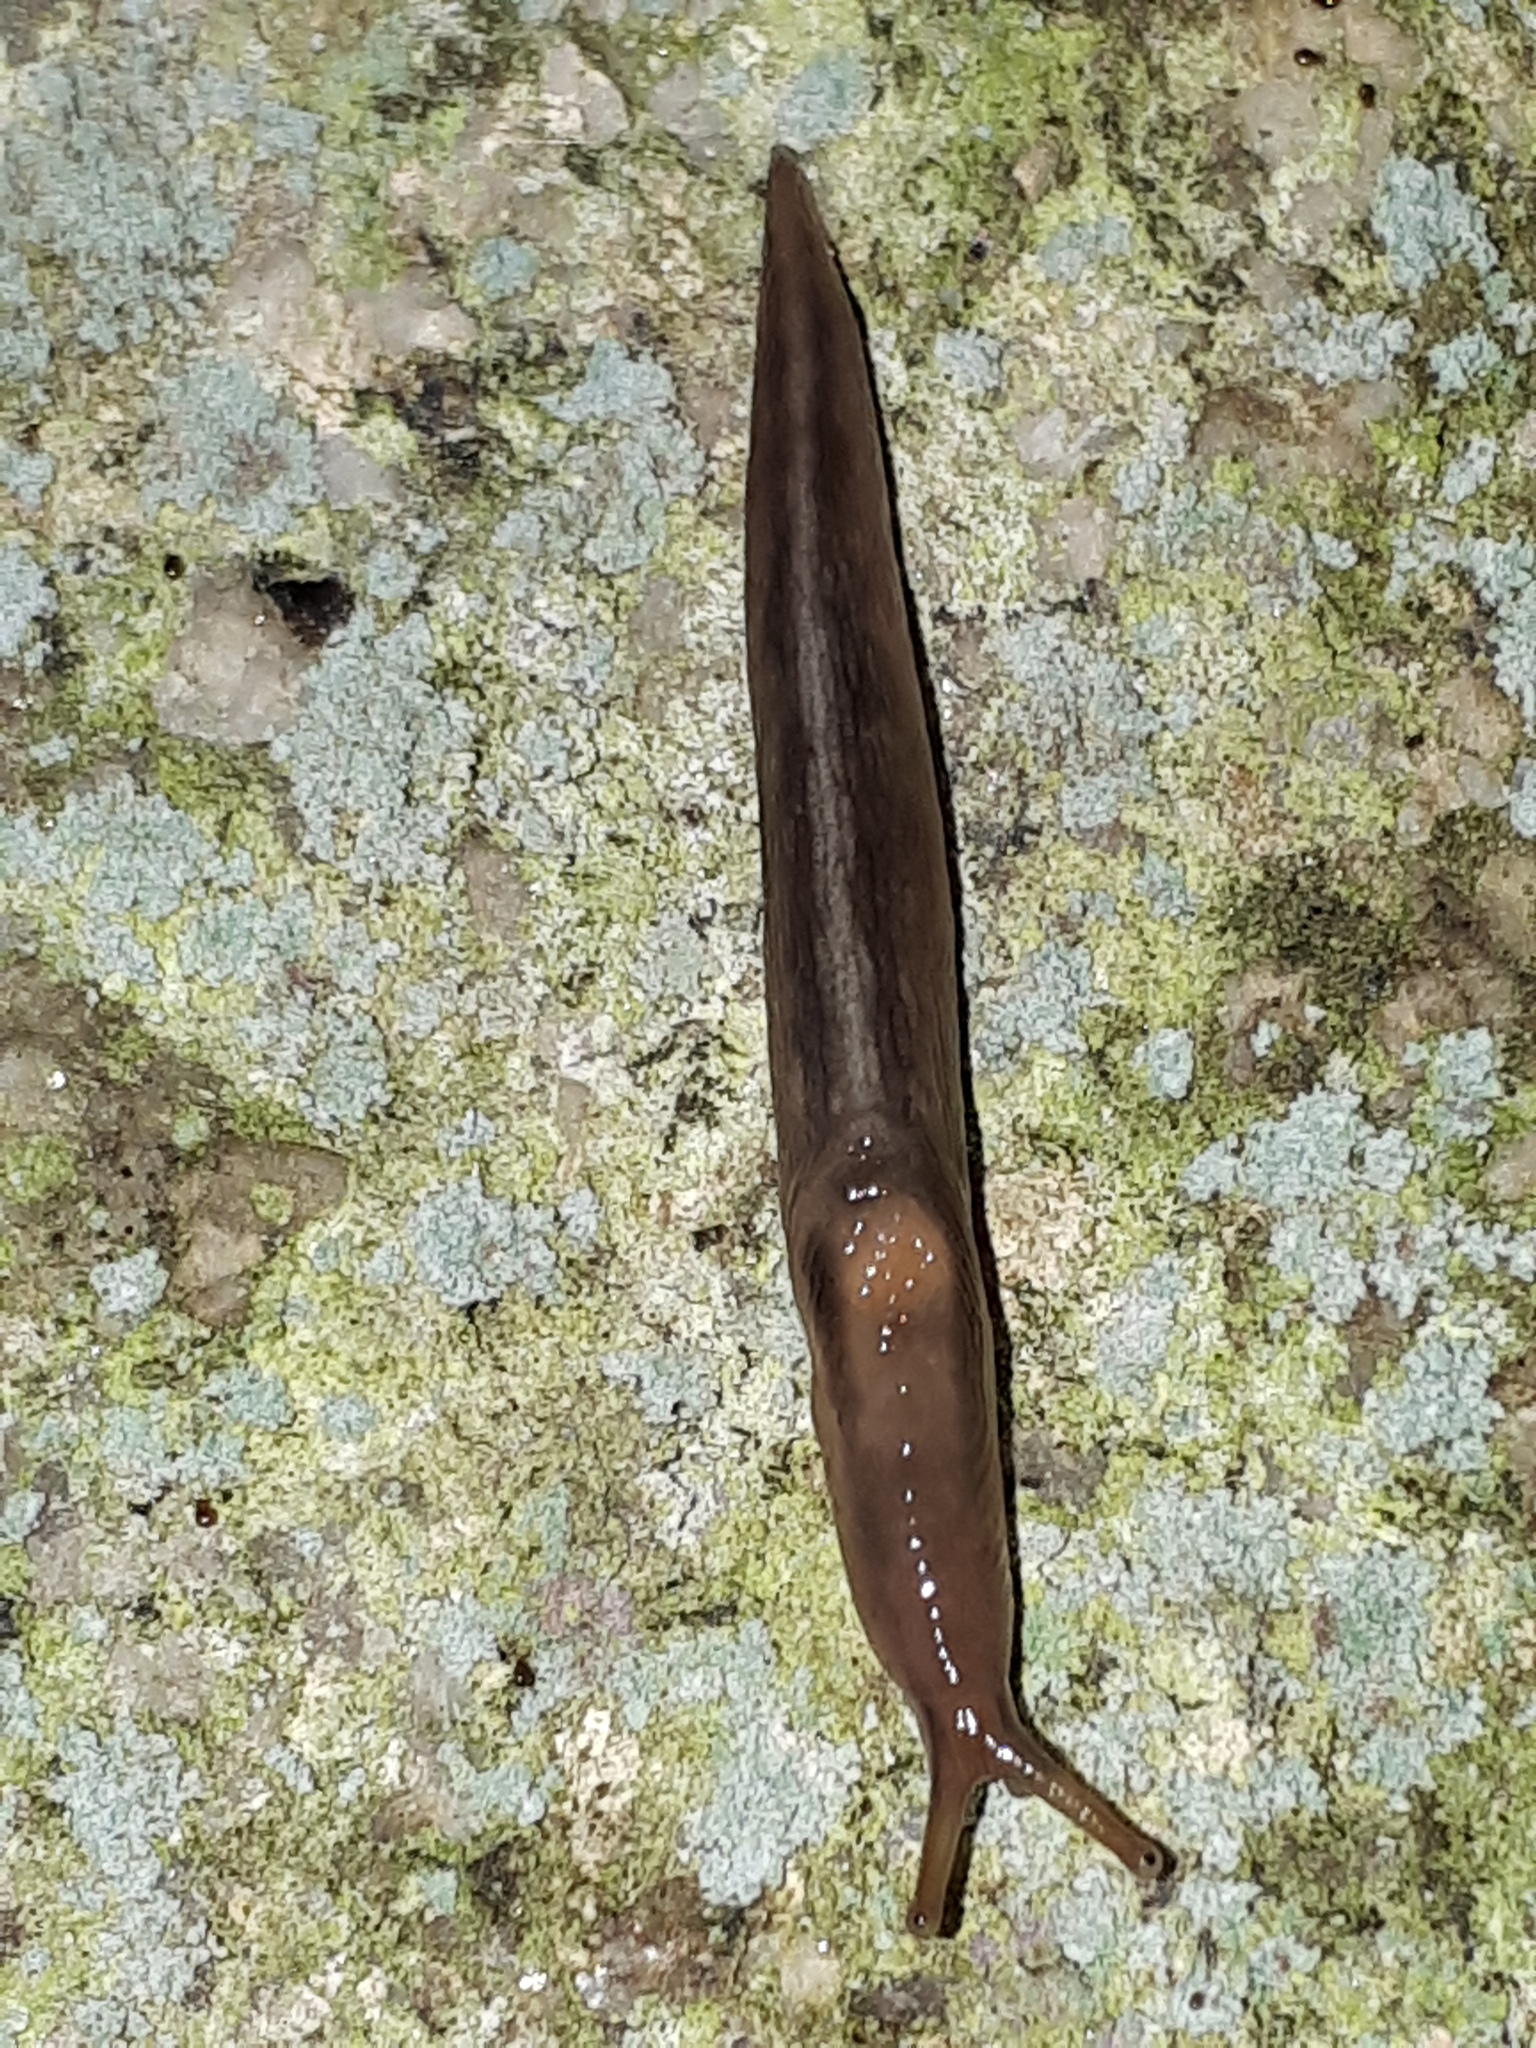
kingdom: Animalia
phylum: Mollusca
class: Gastropoda
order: Stylommatophora
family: Limacidae
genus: Lehmannia
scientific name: Lehmannia marginata
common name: Tree slug
